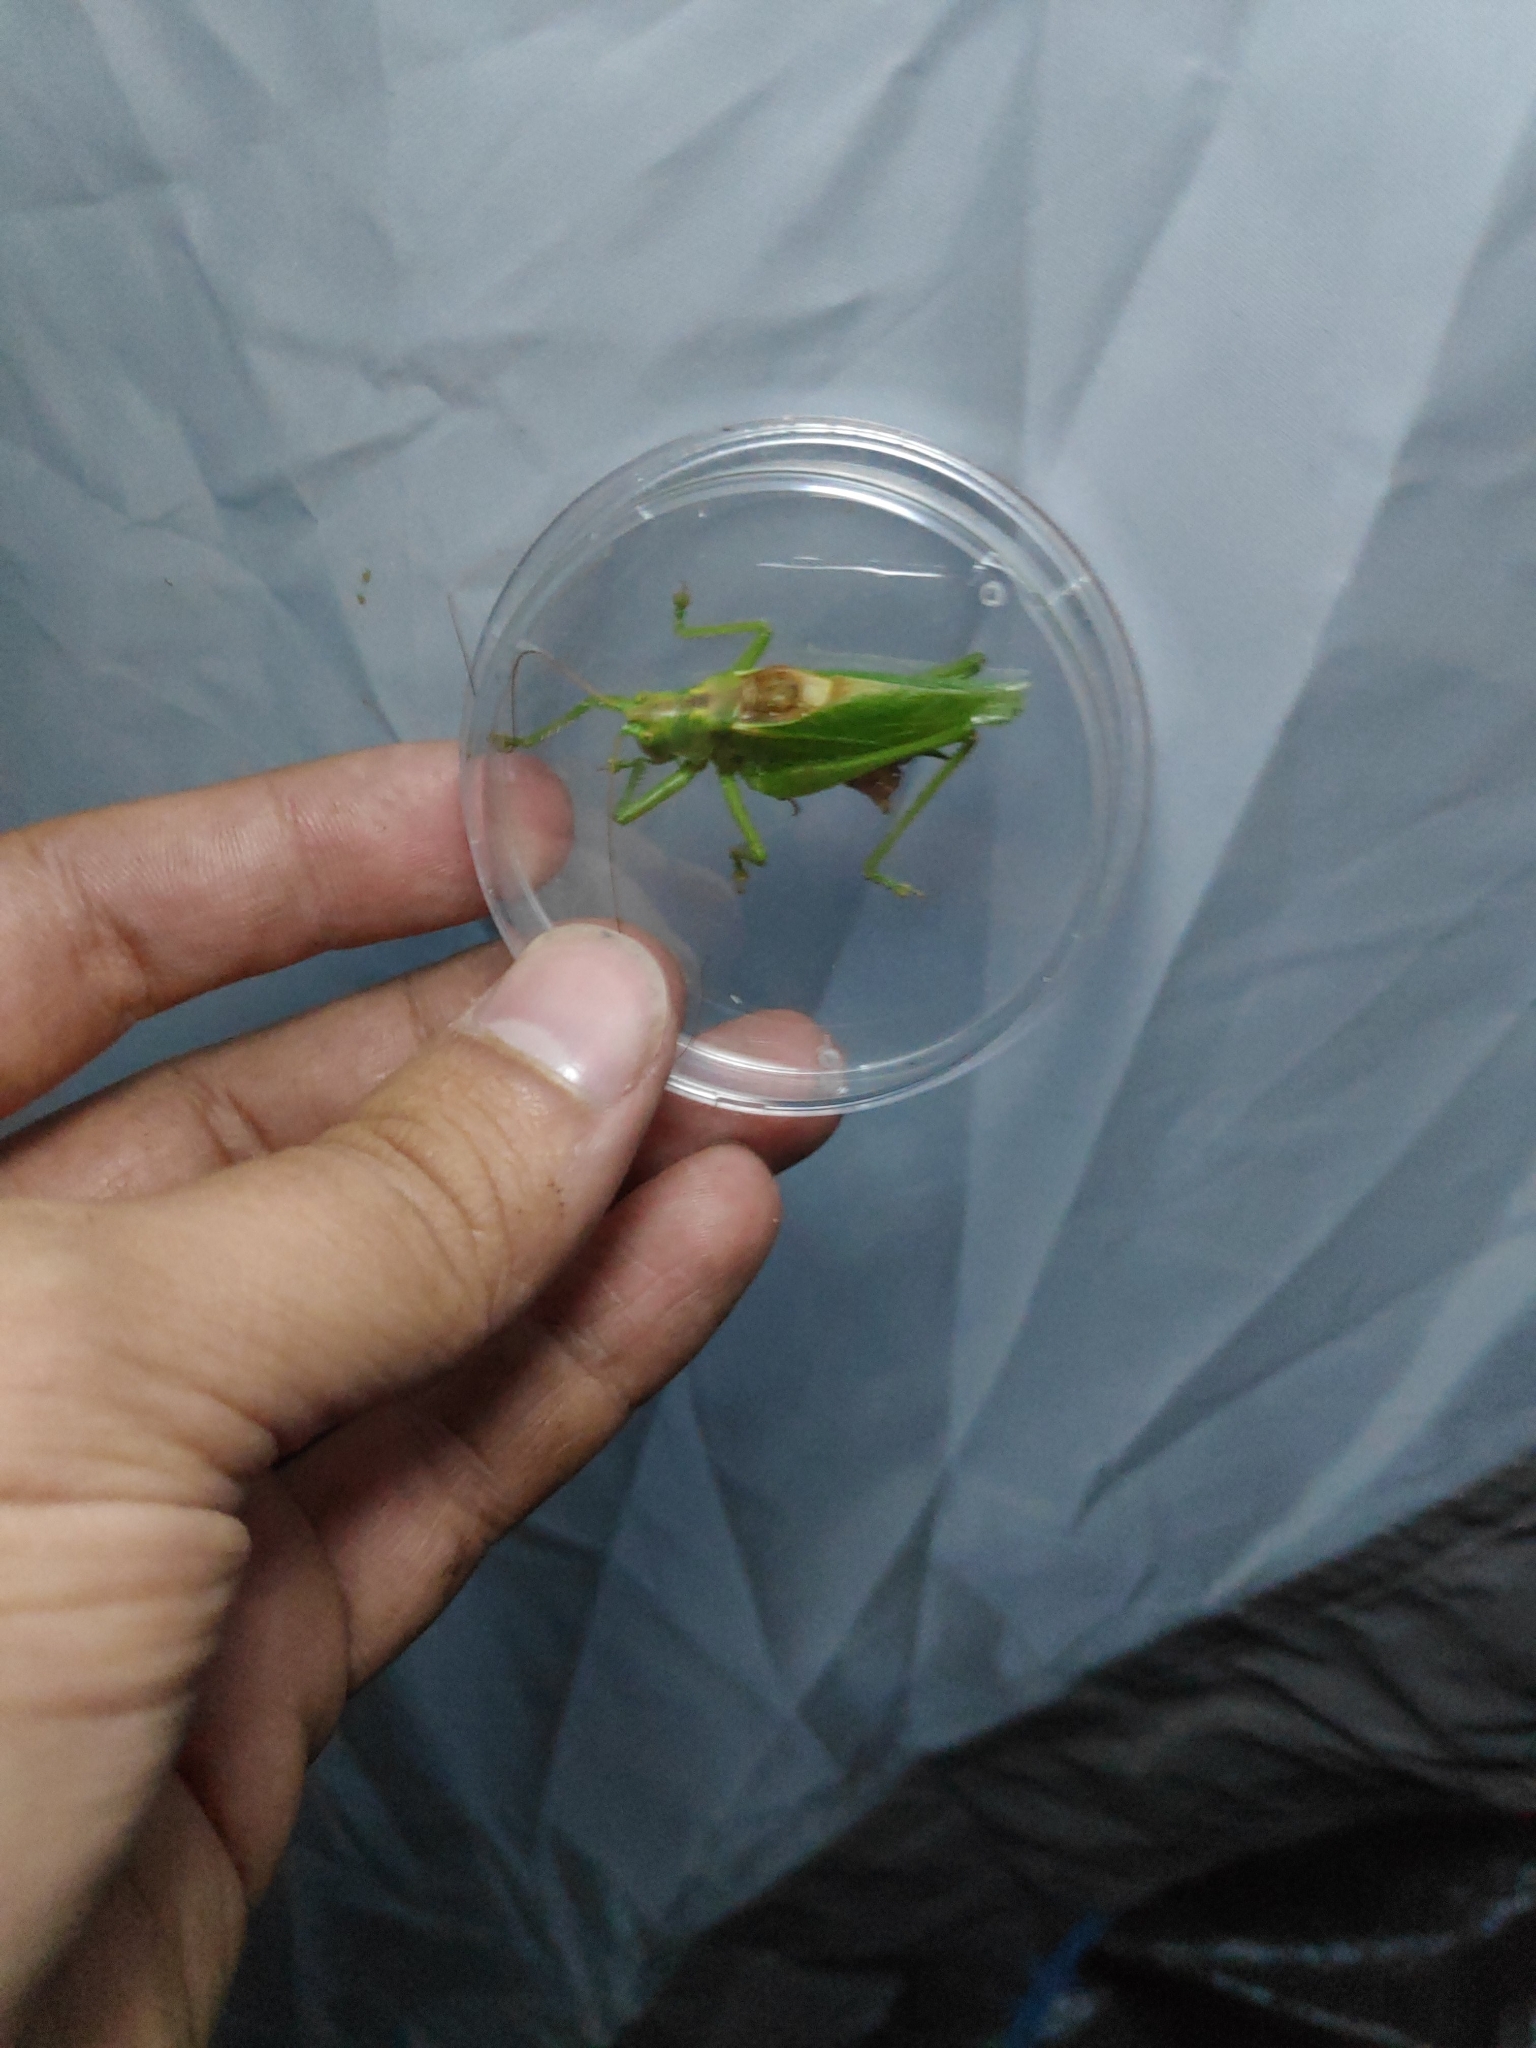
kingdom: Animalia
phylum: Arthropoda
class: Insecta
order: Orthoptera
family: Tettigoniidae
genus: Tettigonia
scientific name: Tettigonia cantans
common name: Upland green bush-cricket
